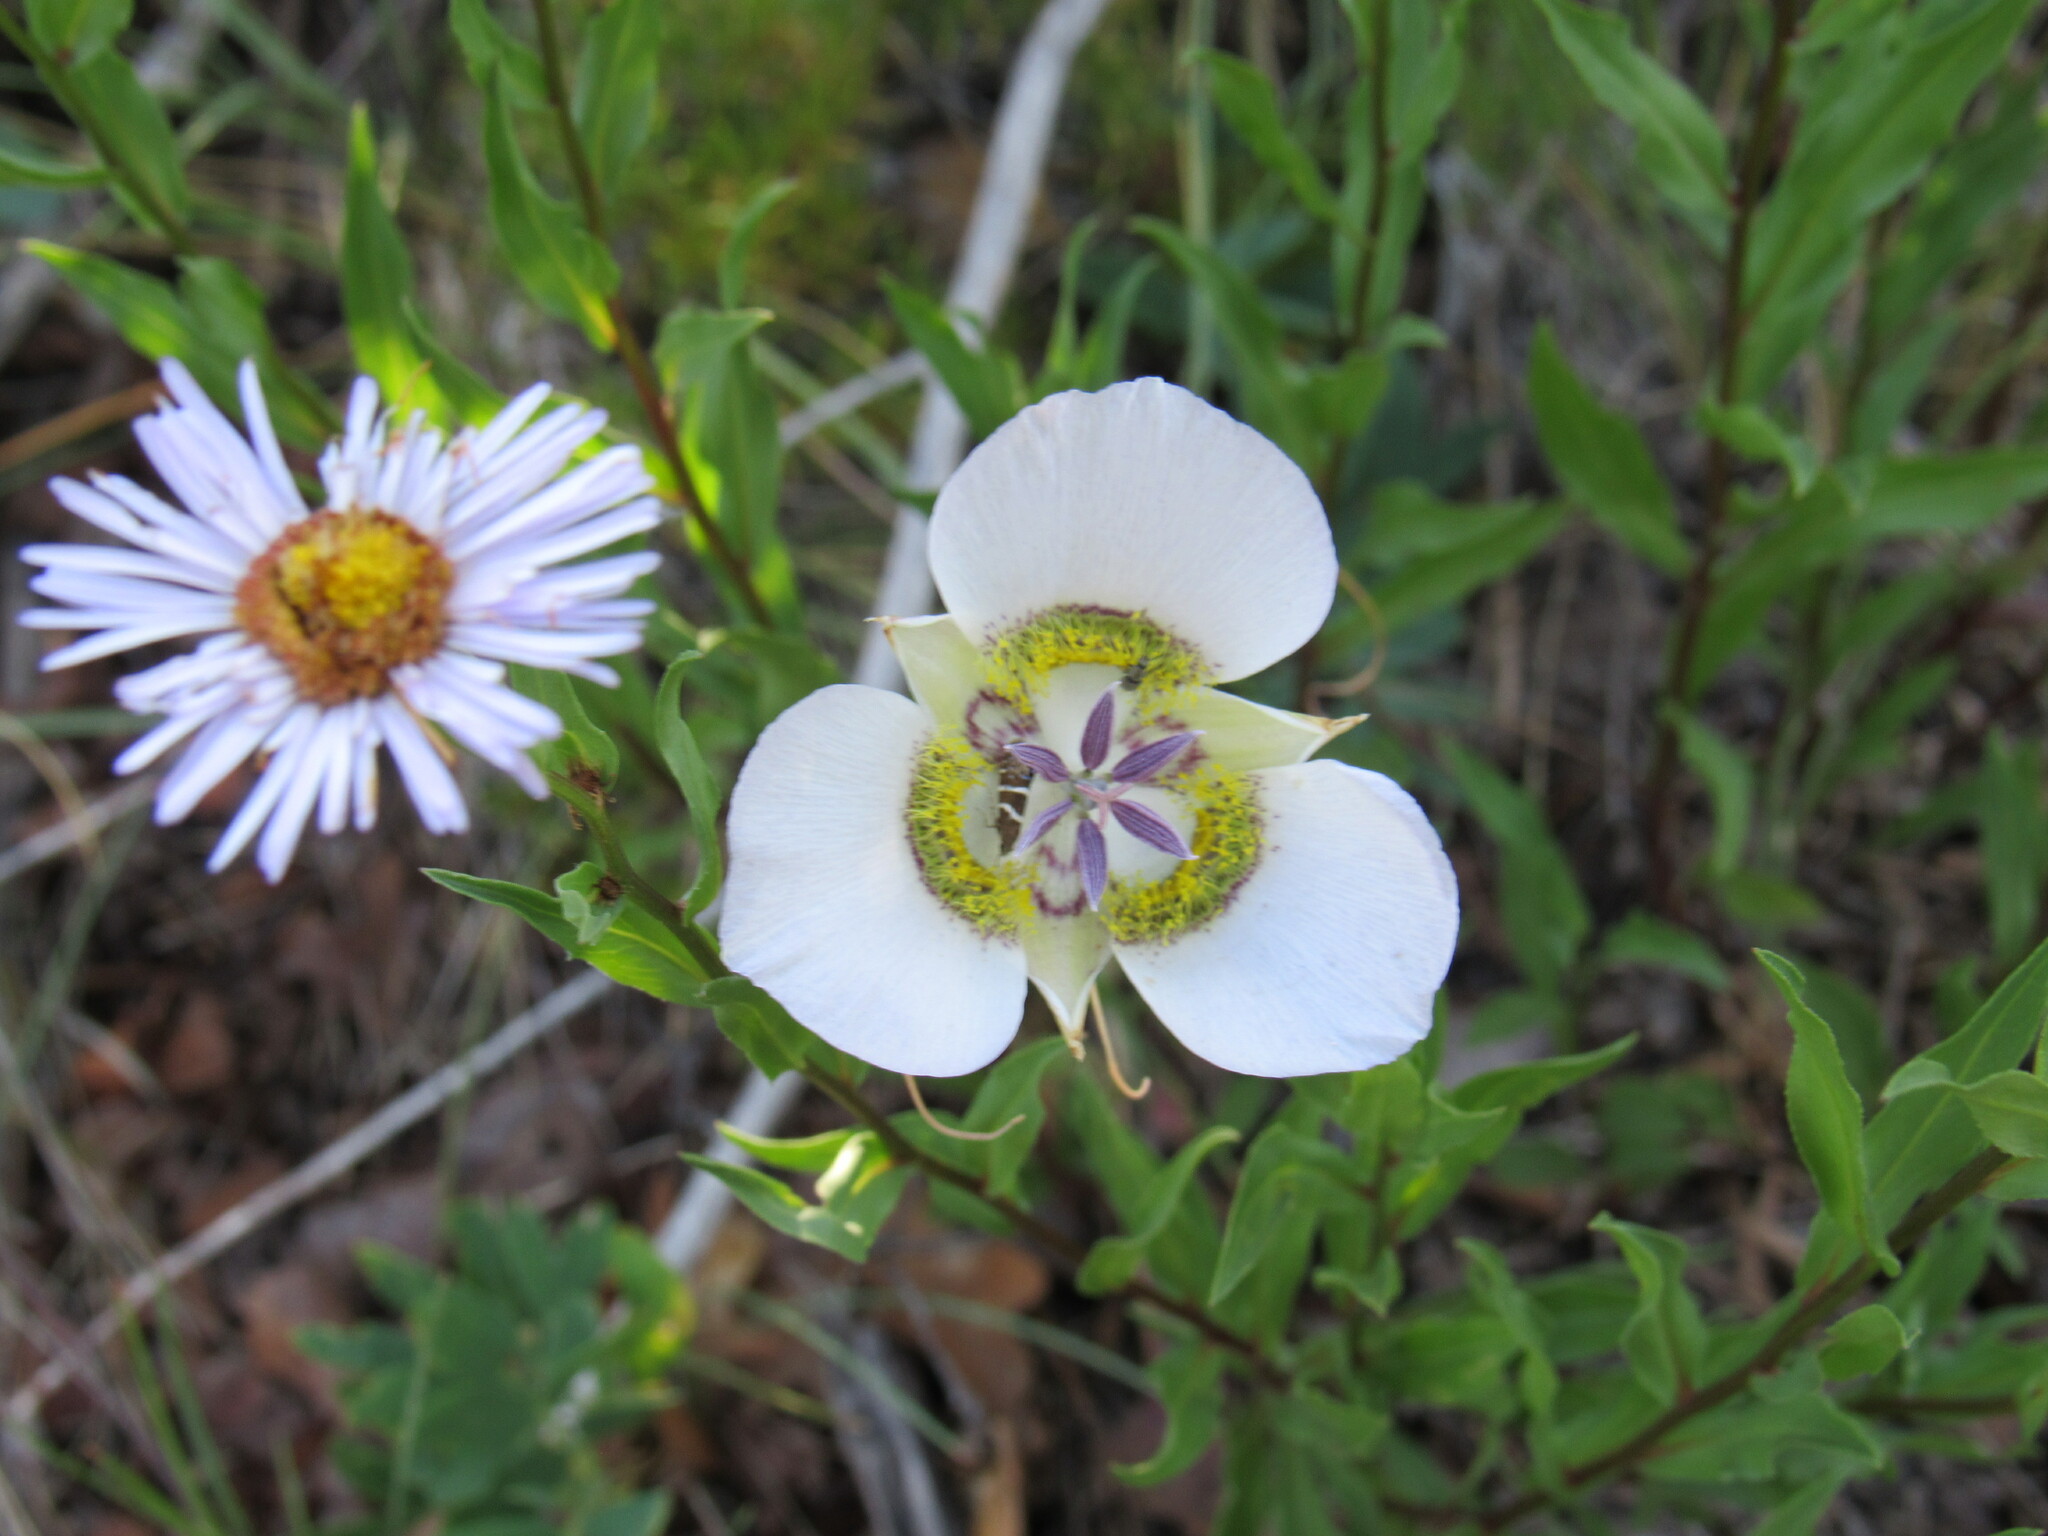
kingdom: Plantae
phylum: Tracheophyta
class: Liliopsida
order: Liliales
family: Liliaceae
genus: Calochortus
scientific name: Calochortus gunnisonii
